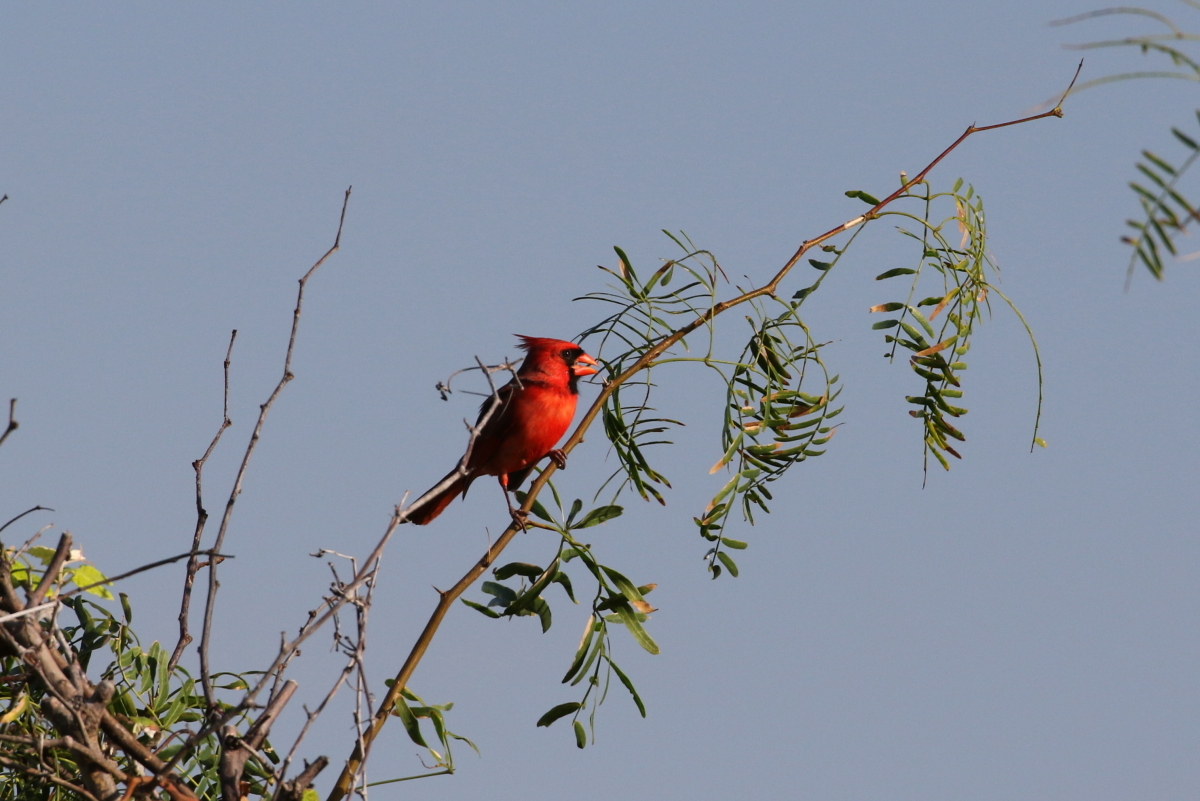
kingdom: Animalia
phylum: Chordata
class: Aves
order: Passeriformes
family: Cardinalidae
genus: Cardinalis
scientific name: Cardinalis cardinalis
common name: Northern cardinal
